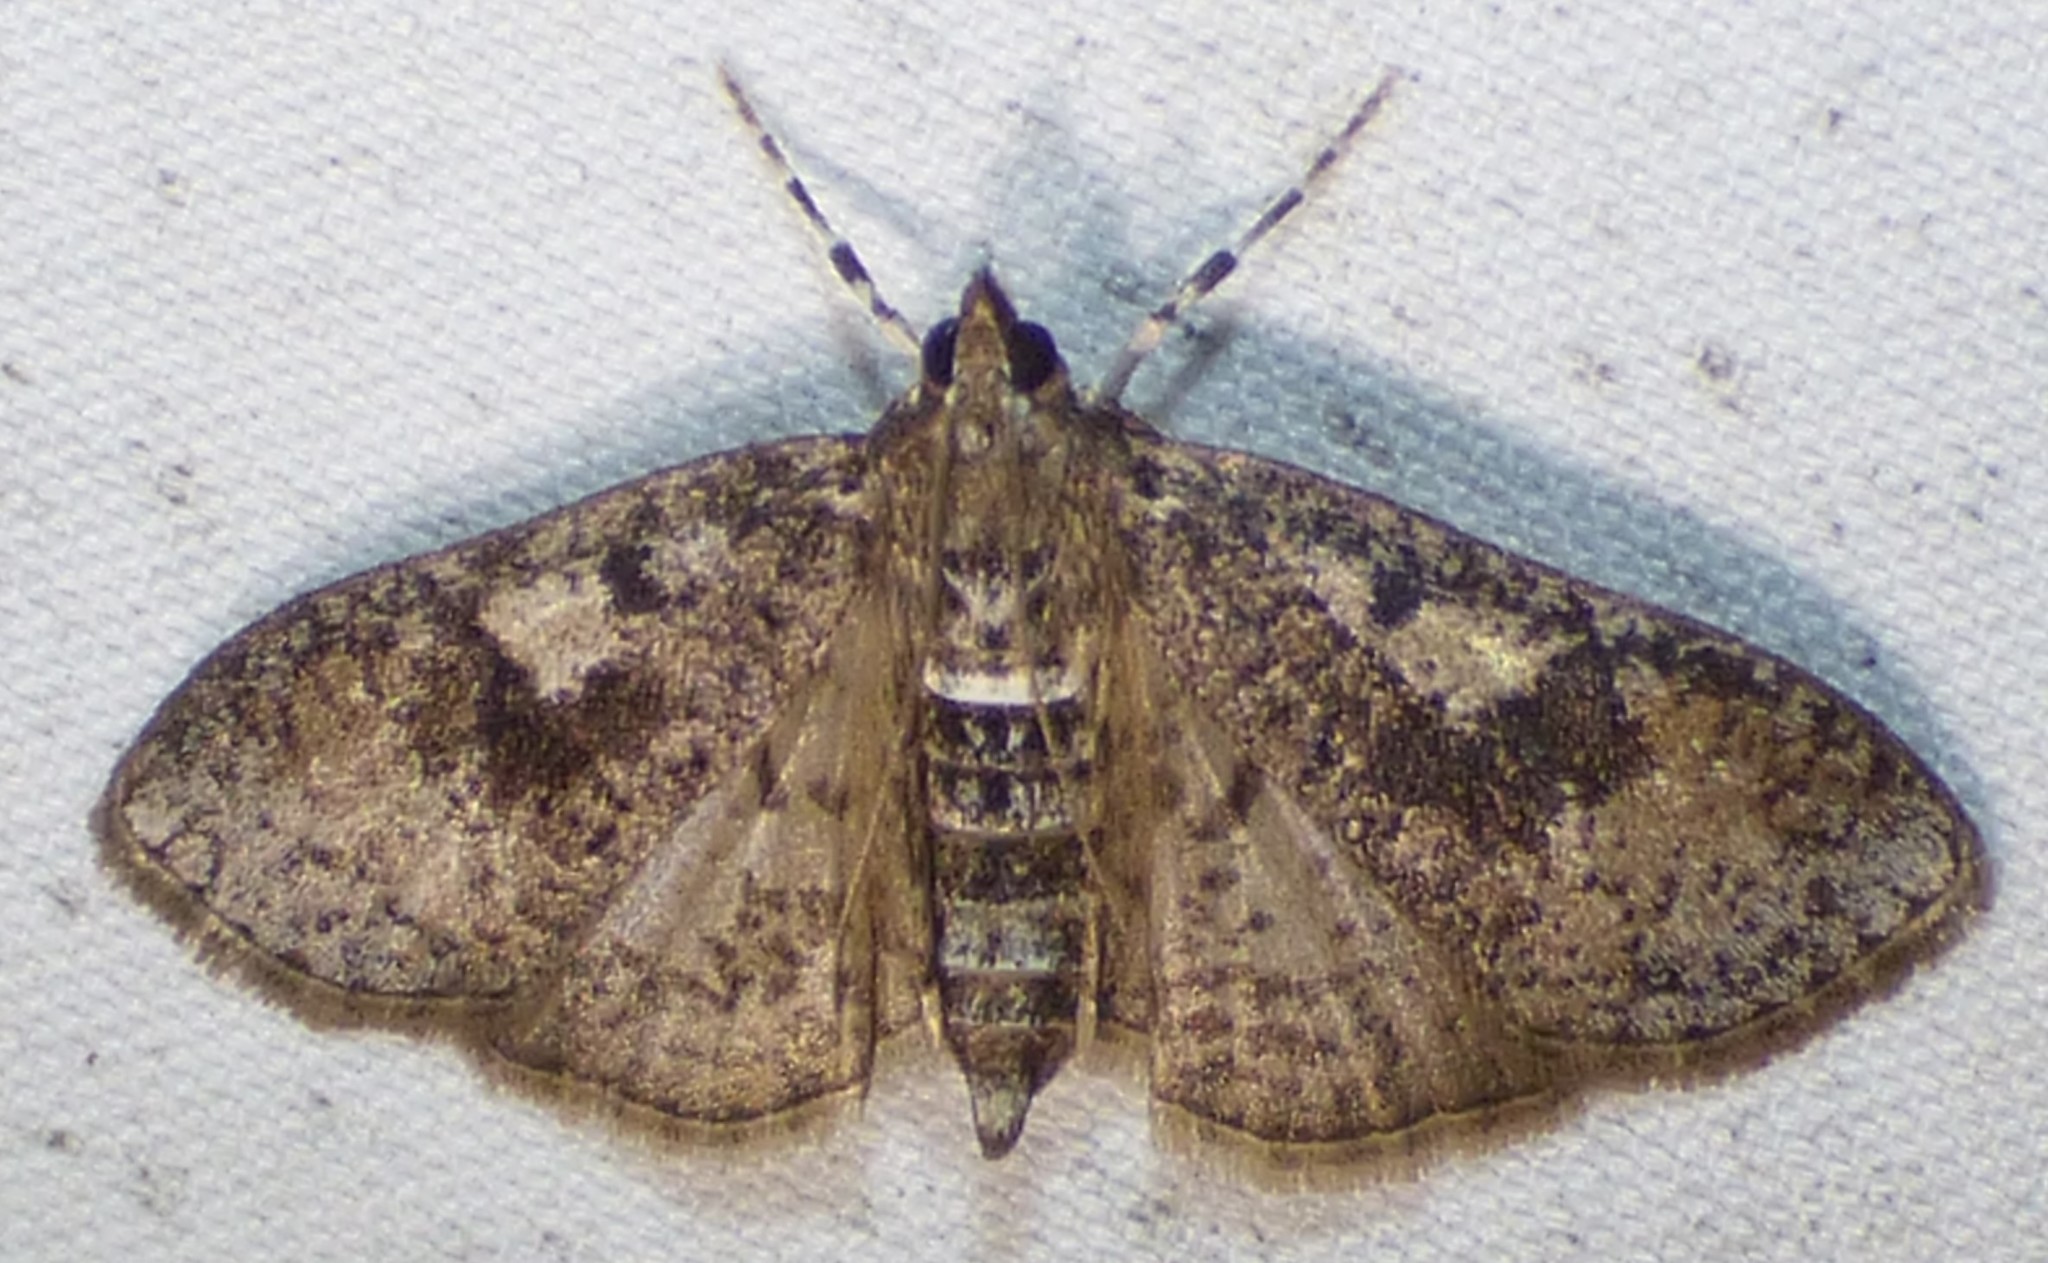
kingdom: Animalia
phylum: Arthropoda
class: Insecta
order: Lepidoptera
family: Crambidae
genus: Palpita
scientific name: Palpita magniferalis
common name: Splendid palpita moth
